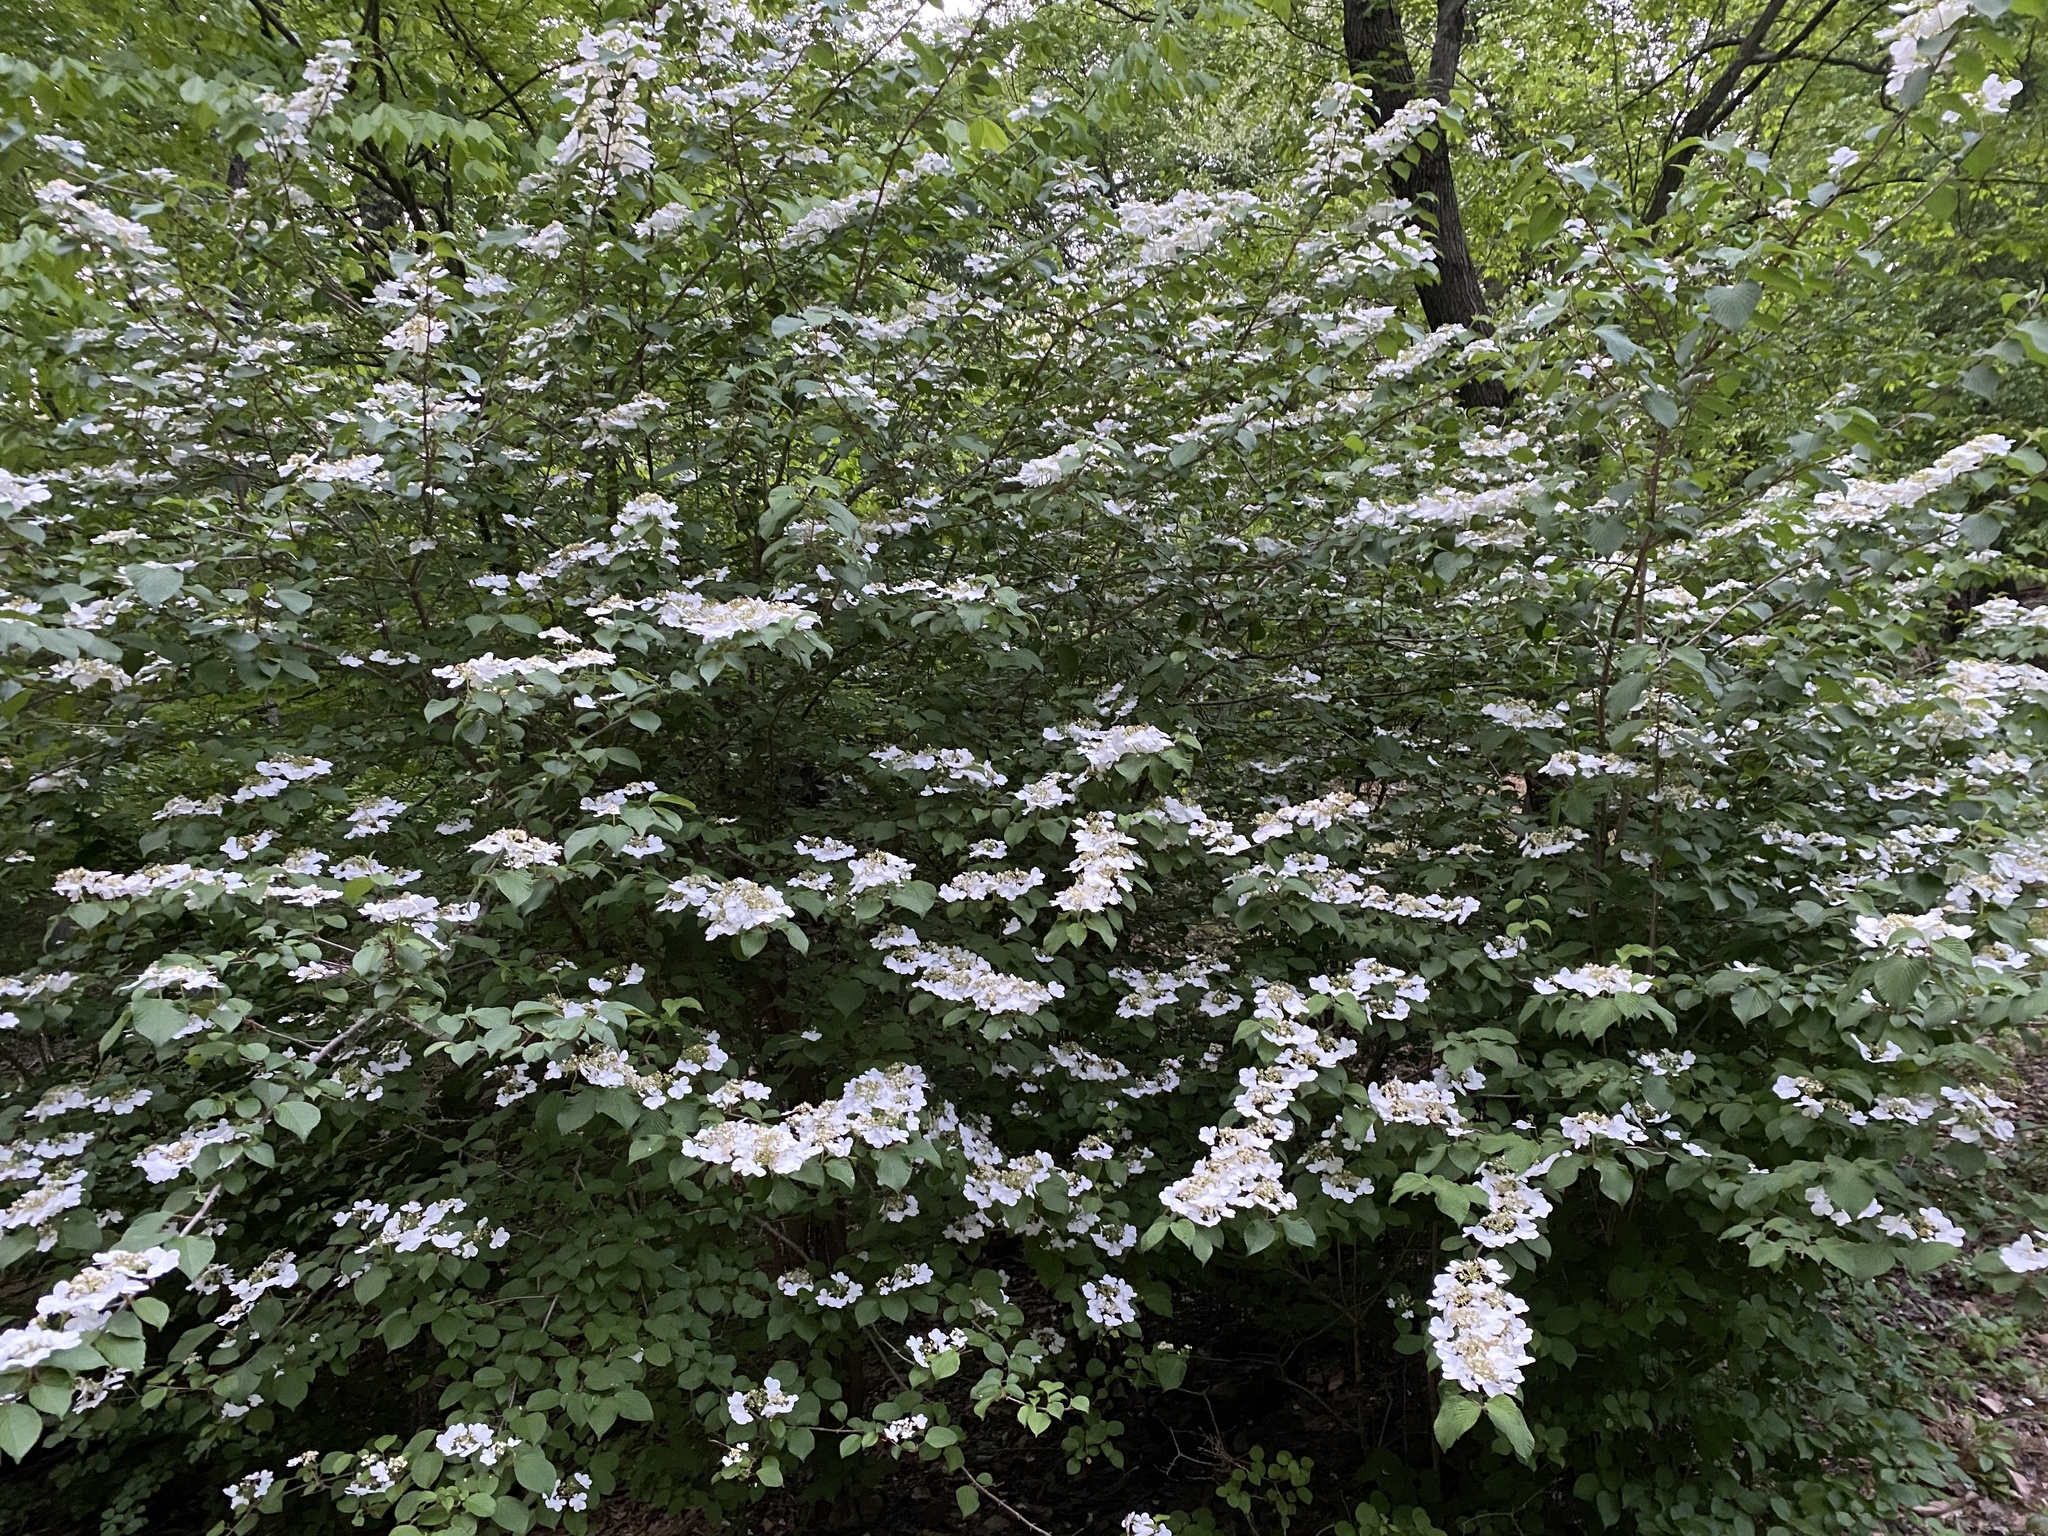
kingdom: Plantae
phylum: Tracheophyta
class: Magnoliopsida
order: Dipsacales
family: Viburnaceae
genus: Viburnum
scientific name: Viburnum plicatum
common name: Japanese snowball
